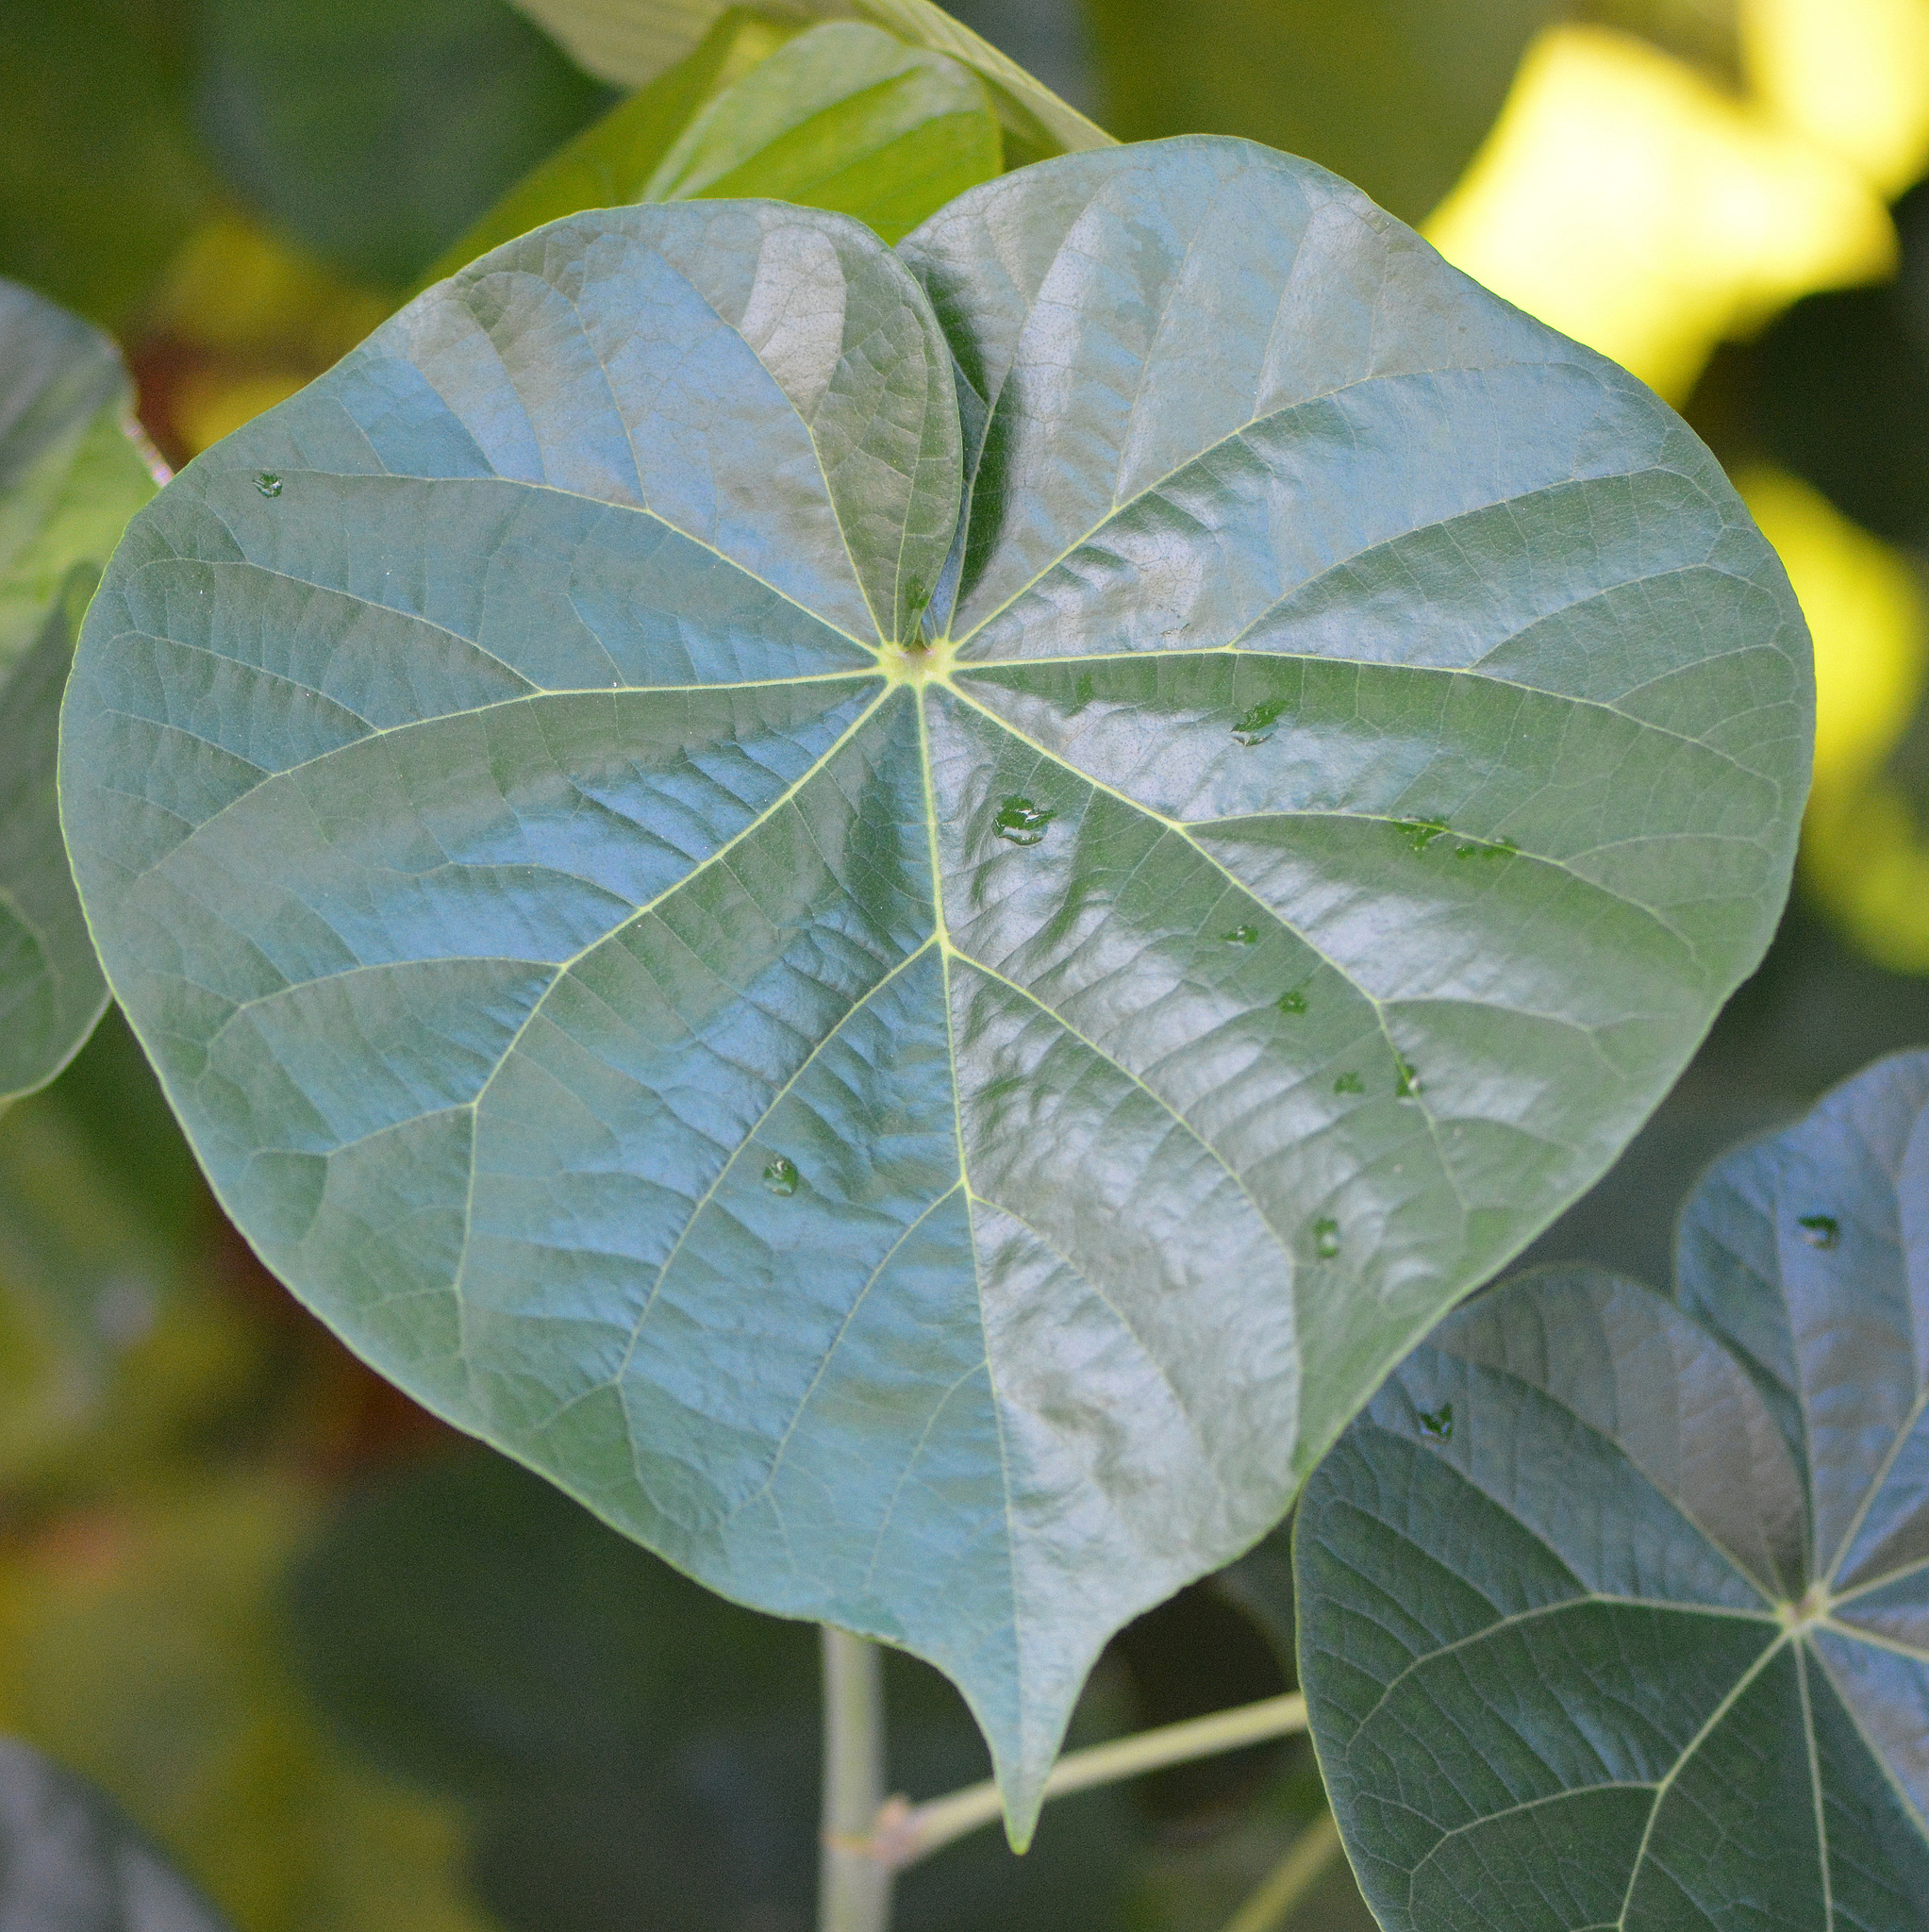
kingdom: Plantae
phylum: Tracheophyta
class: Magnoliopsida
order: Malvales
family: Malvaceae
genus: Talipariti
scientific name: Talipariti tiliaceum
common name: Sea hibiscus
